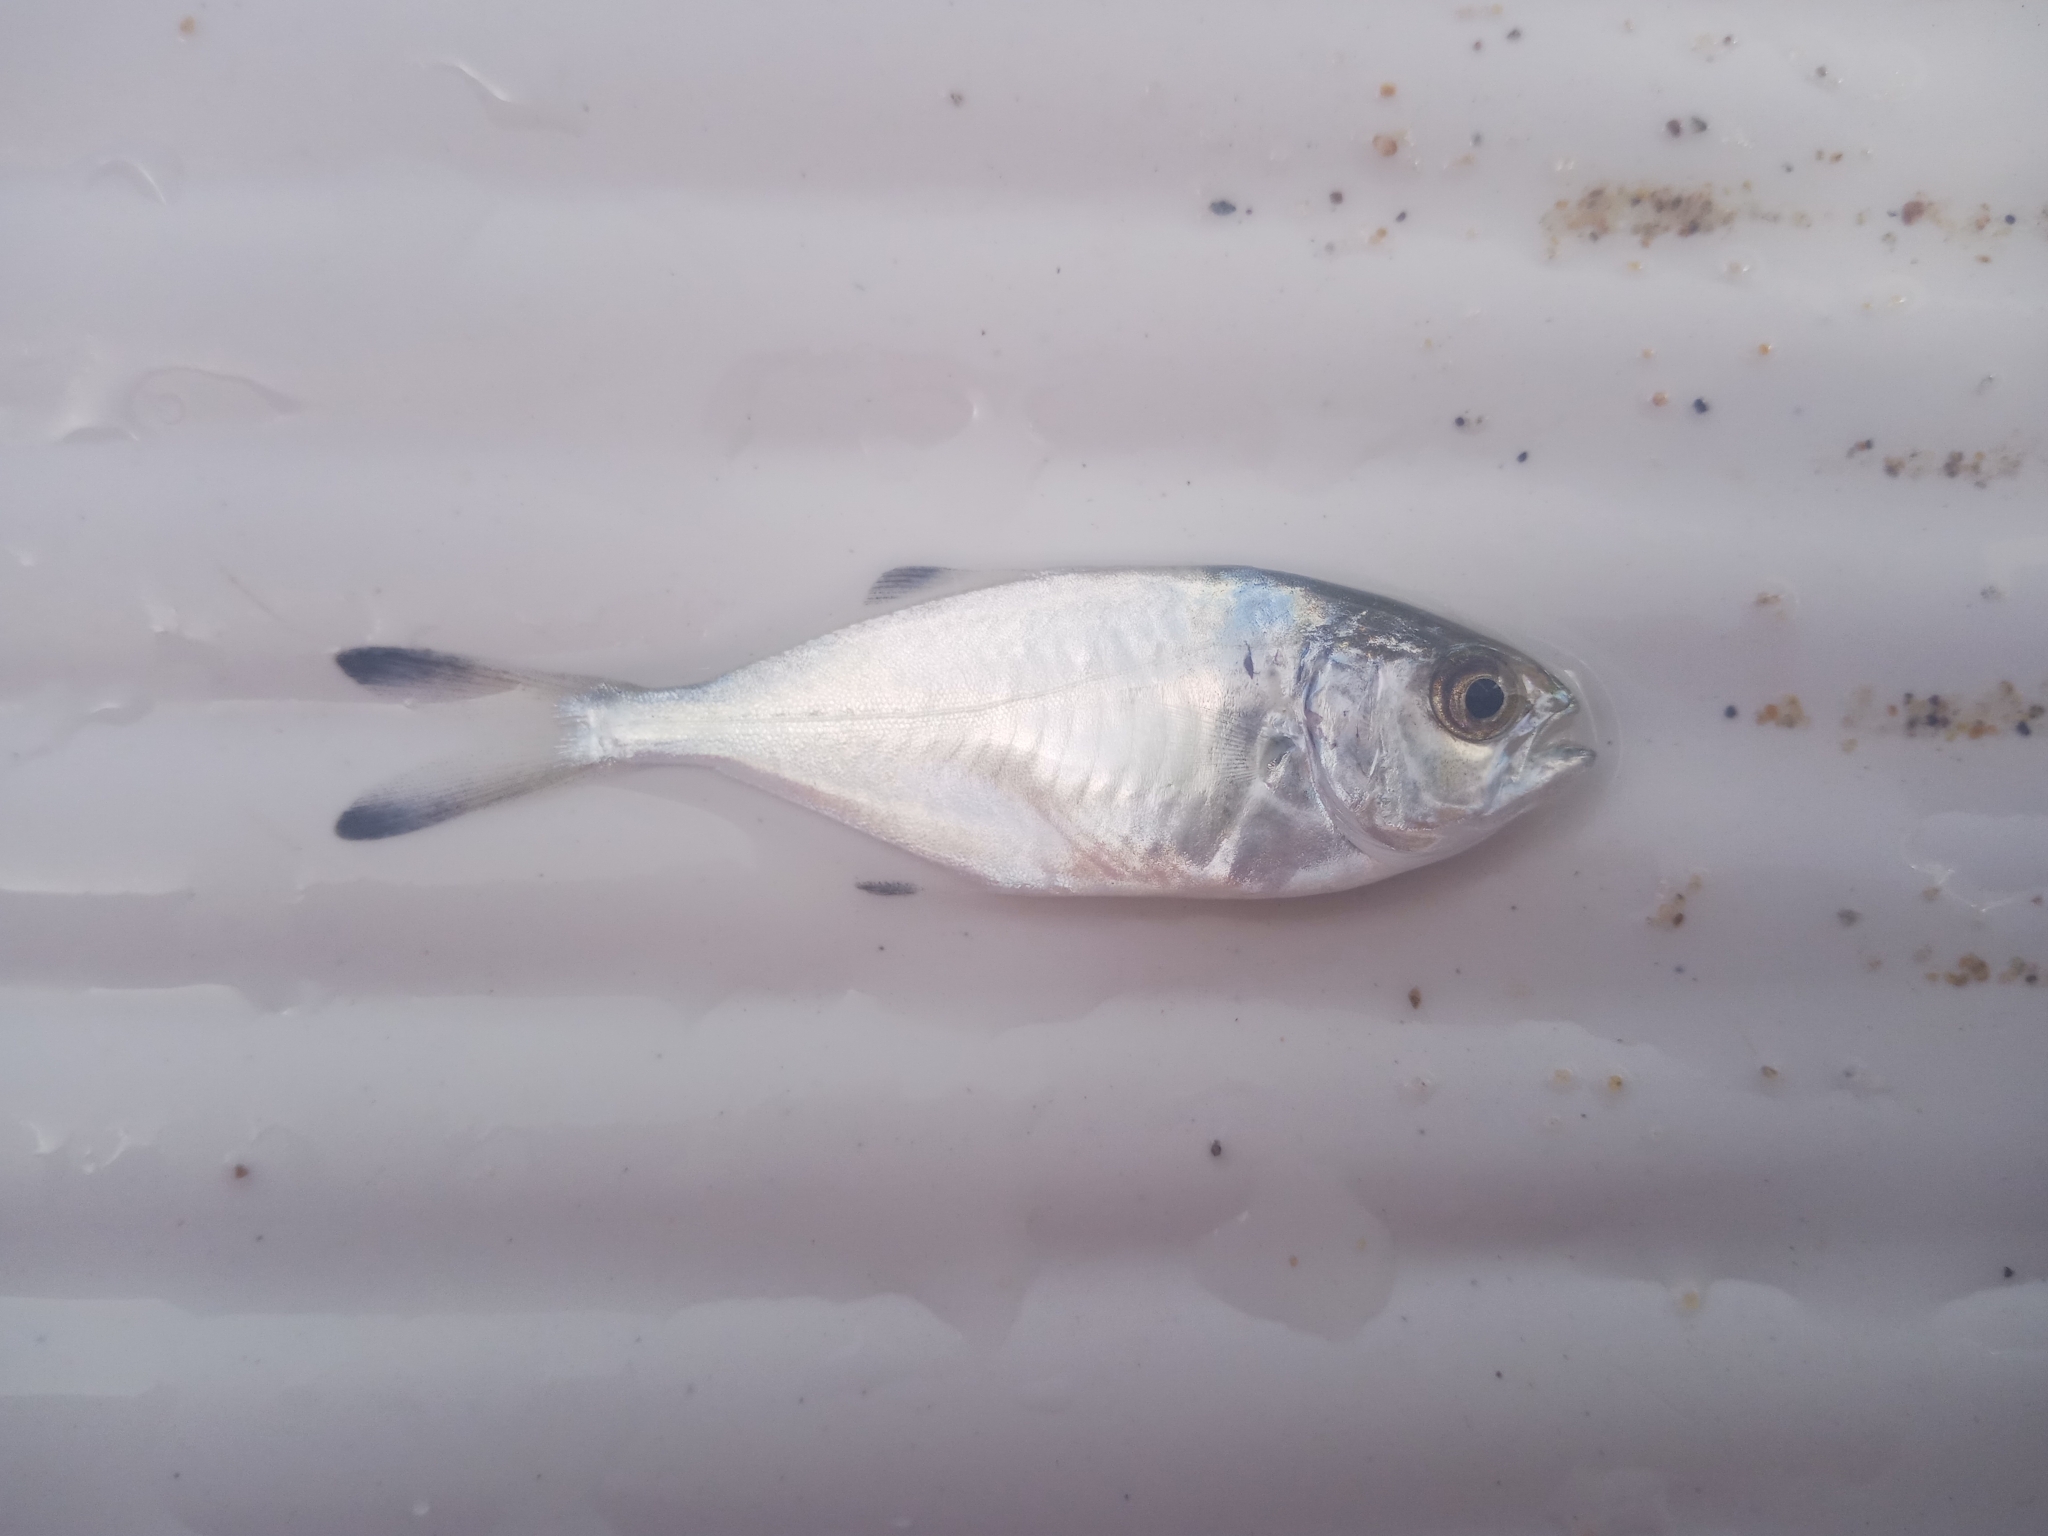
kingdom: Animalia
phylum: Chordata
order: Perciformes
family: Carangidae
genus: Trachinotus
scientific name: Trachinotus ovatus
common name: Pompano
